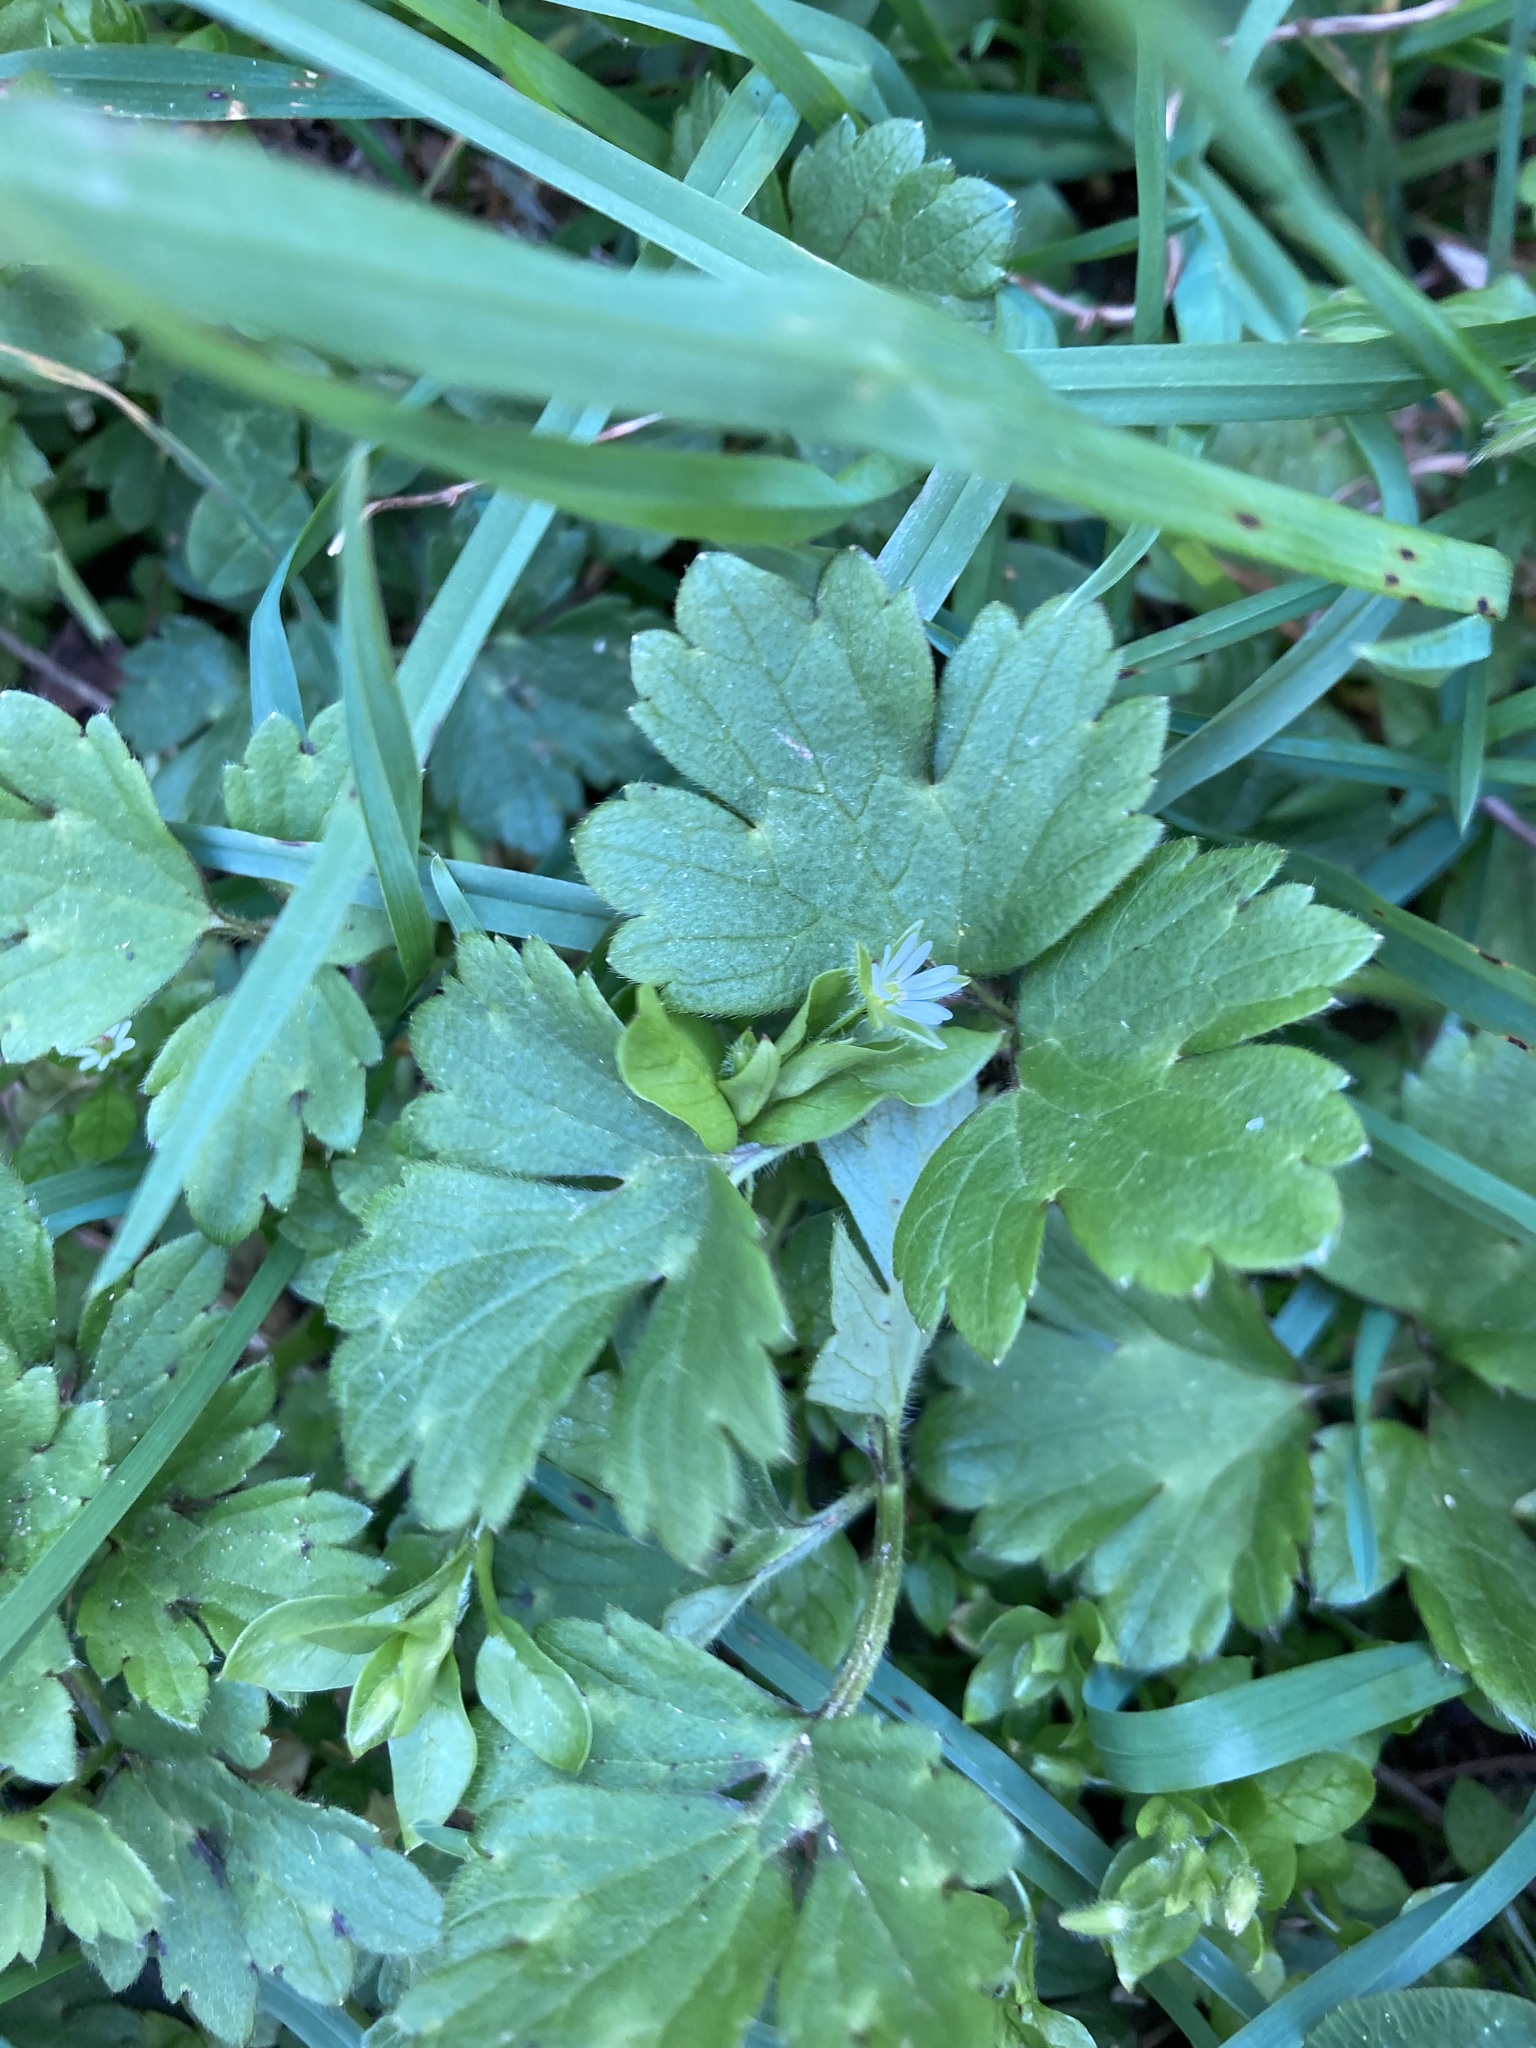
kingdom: Plantae
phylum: Tracheophyta
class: Magnoliopsida
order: Ranunculales
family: Ranunculaceae
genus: Ranunculus
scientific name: Ranunculus repens
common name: Creeping buttercup
